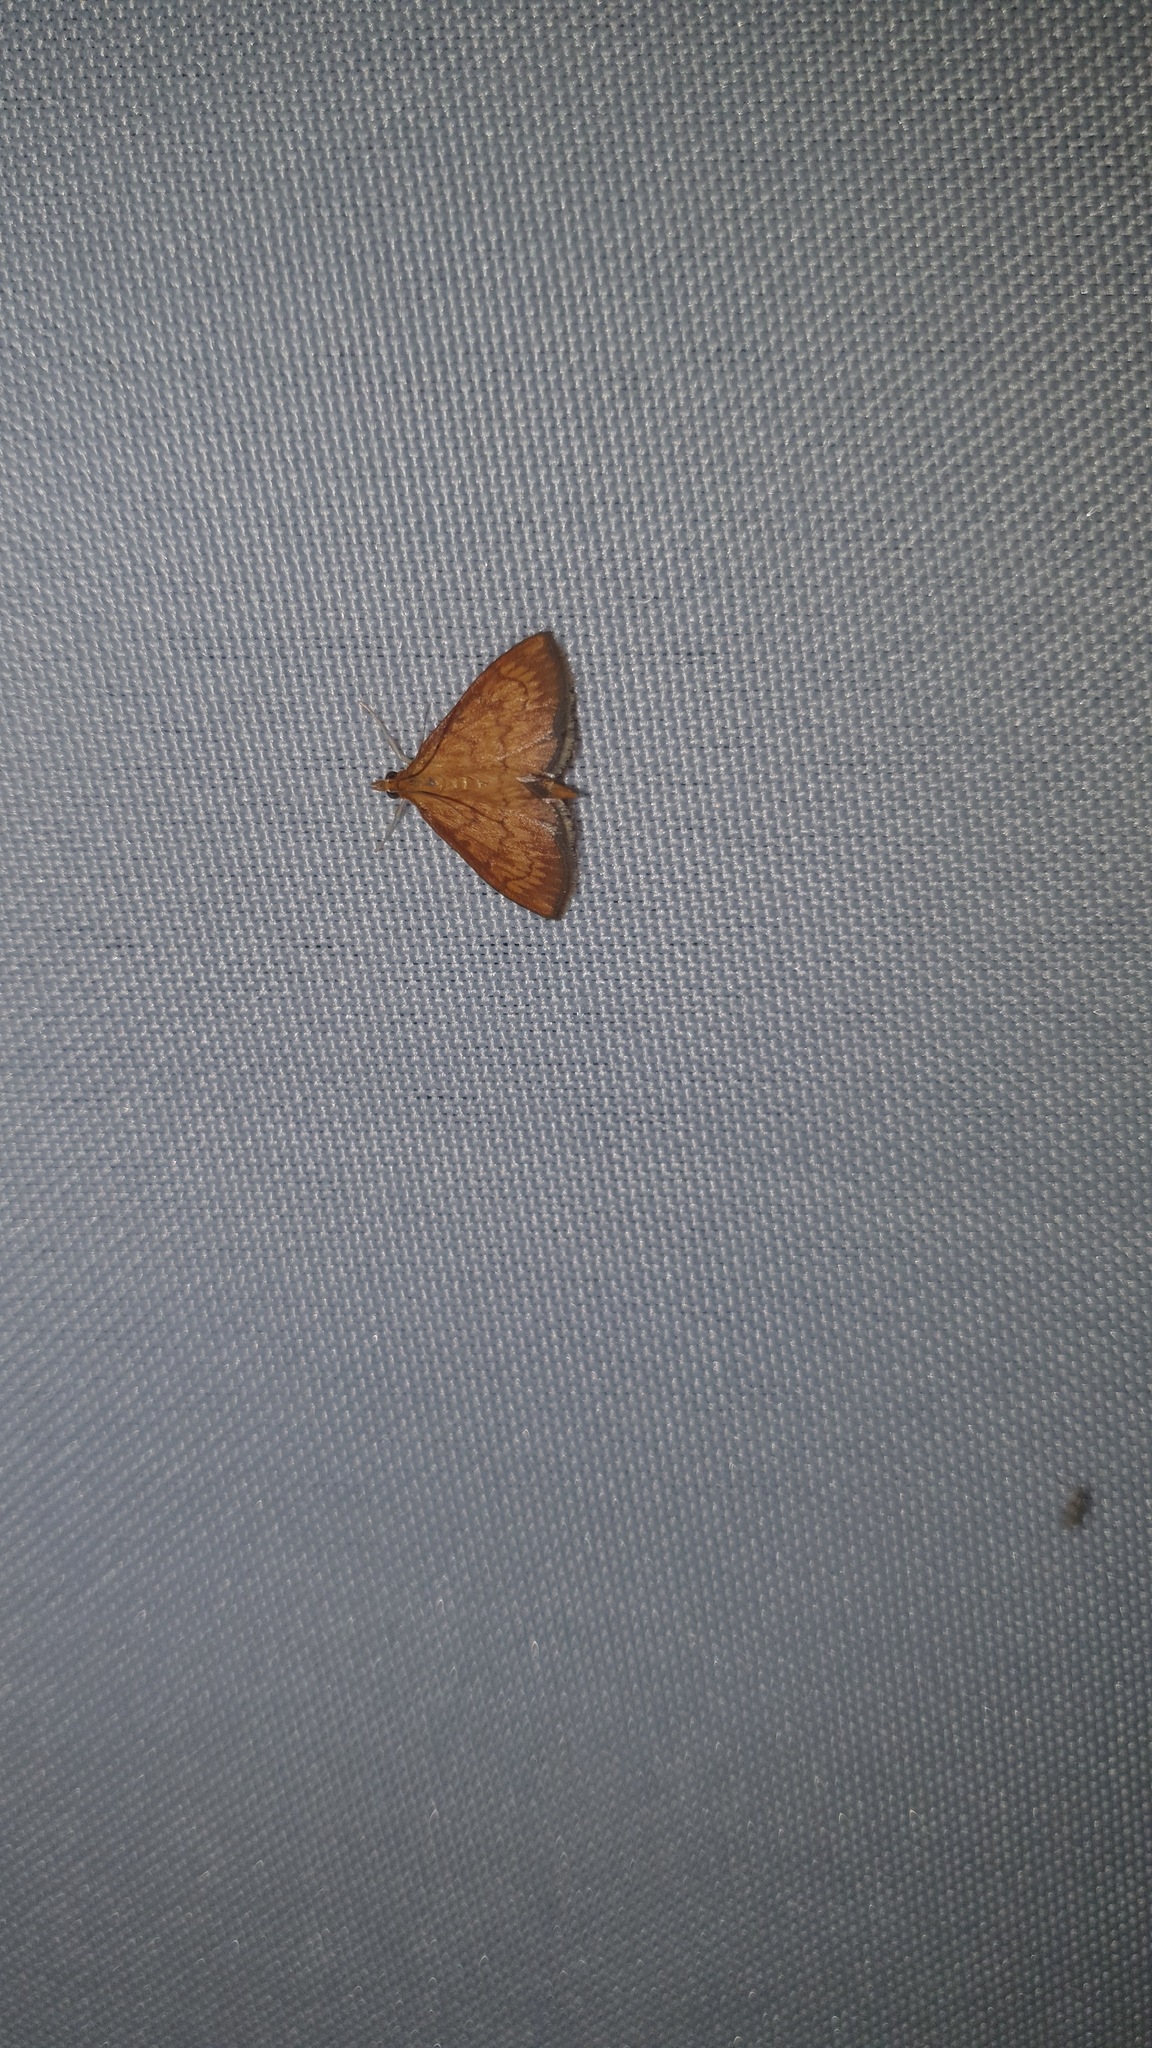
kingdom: Animalia
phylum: Arthropoda
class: Insecta
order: Lepidoptera
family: Crambidae
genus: Ecpyrrhorrhoe
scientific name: Ecpyrrhorrhoe rubiginalis
